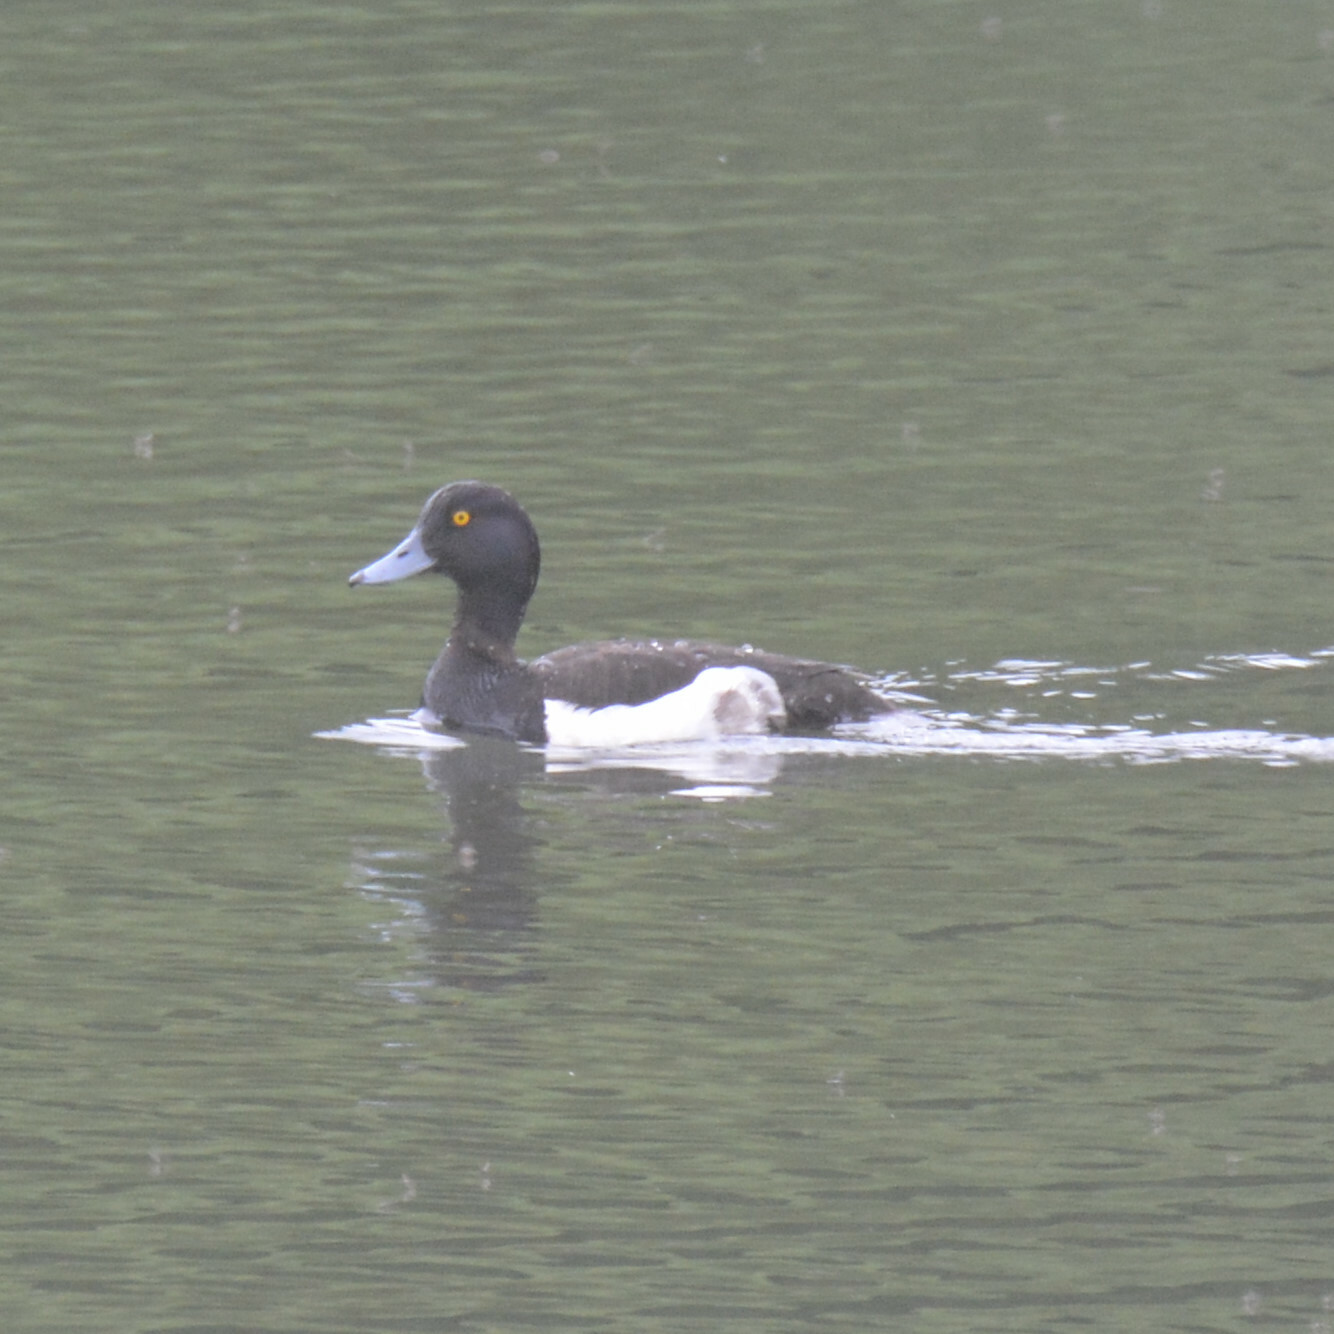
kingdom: Animalia
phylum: Chordata
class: Aves
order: Anseriformes
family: Anatidae
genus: Aythya
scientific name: Aythya fuligula
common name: Tufted duck
